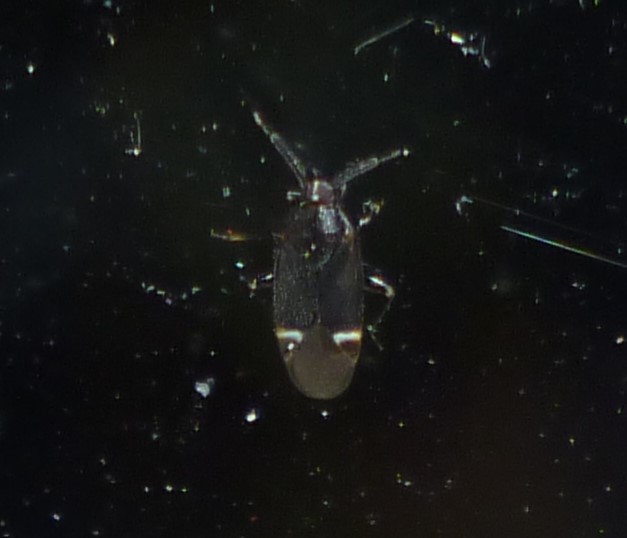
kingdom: Animalia
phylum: Arthropoda
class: Insecta
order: Hemiptera
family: Miridae
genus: Myiomma
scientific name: Myiomma cixiiforme
